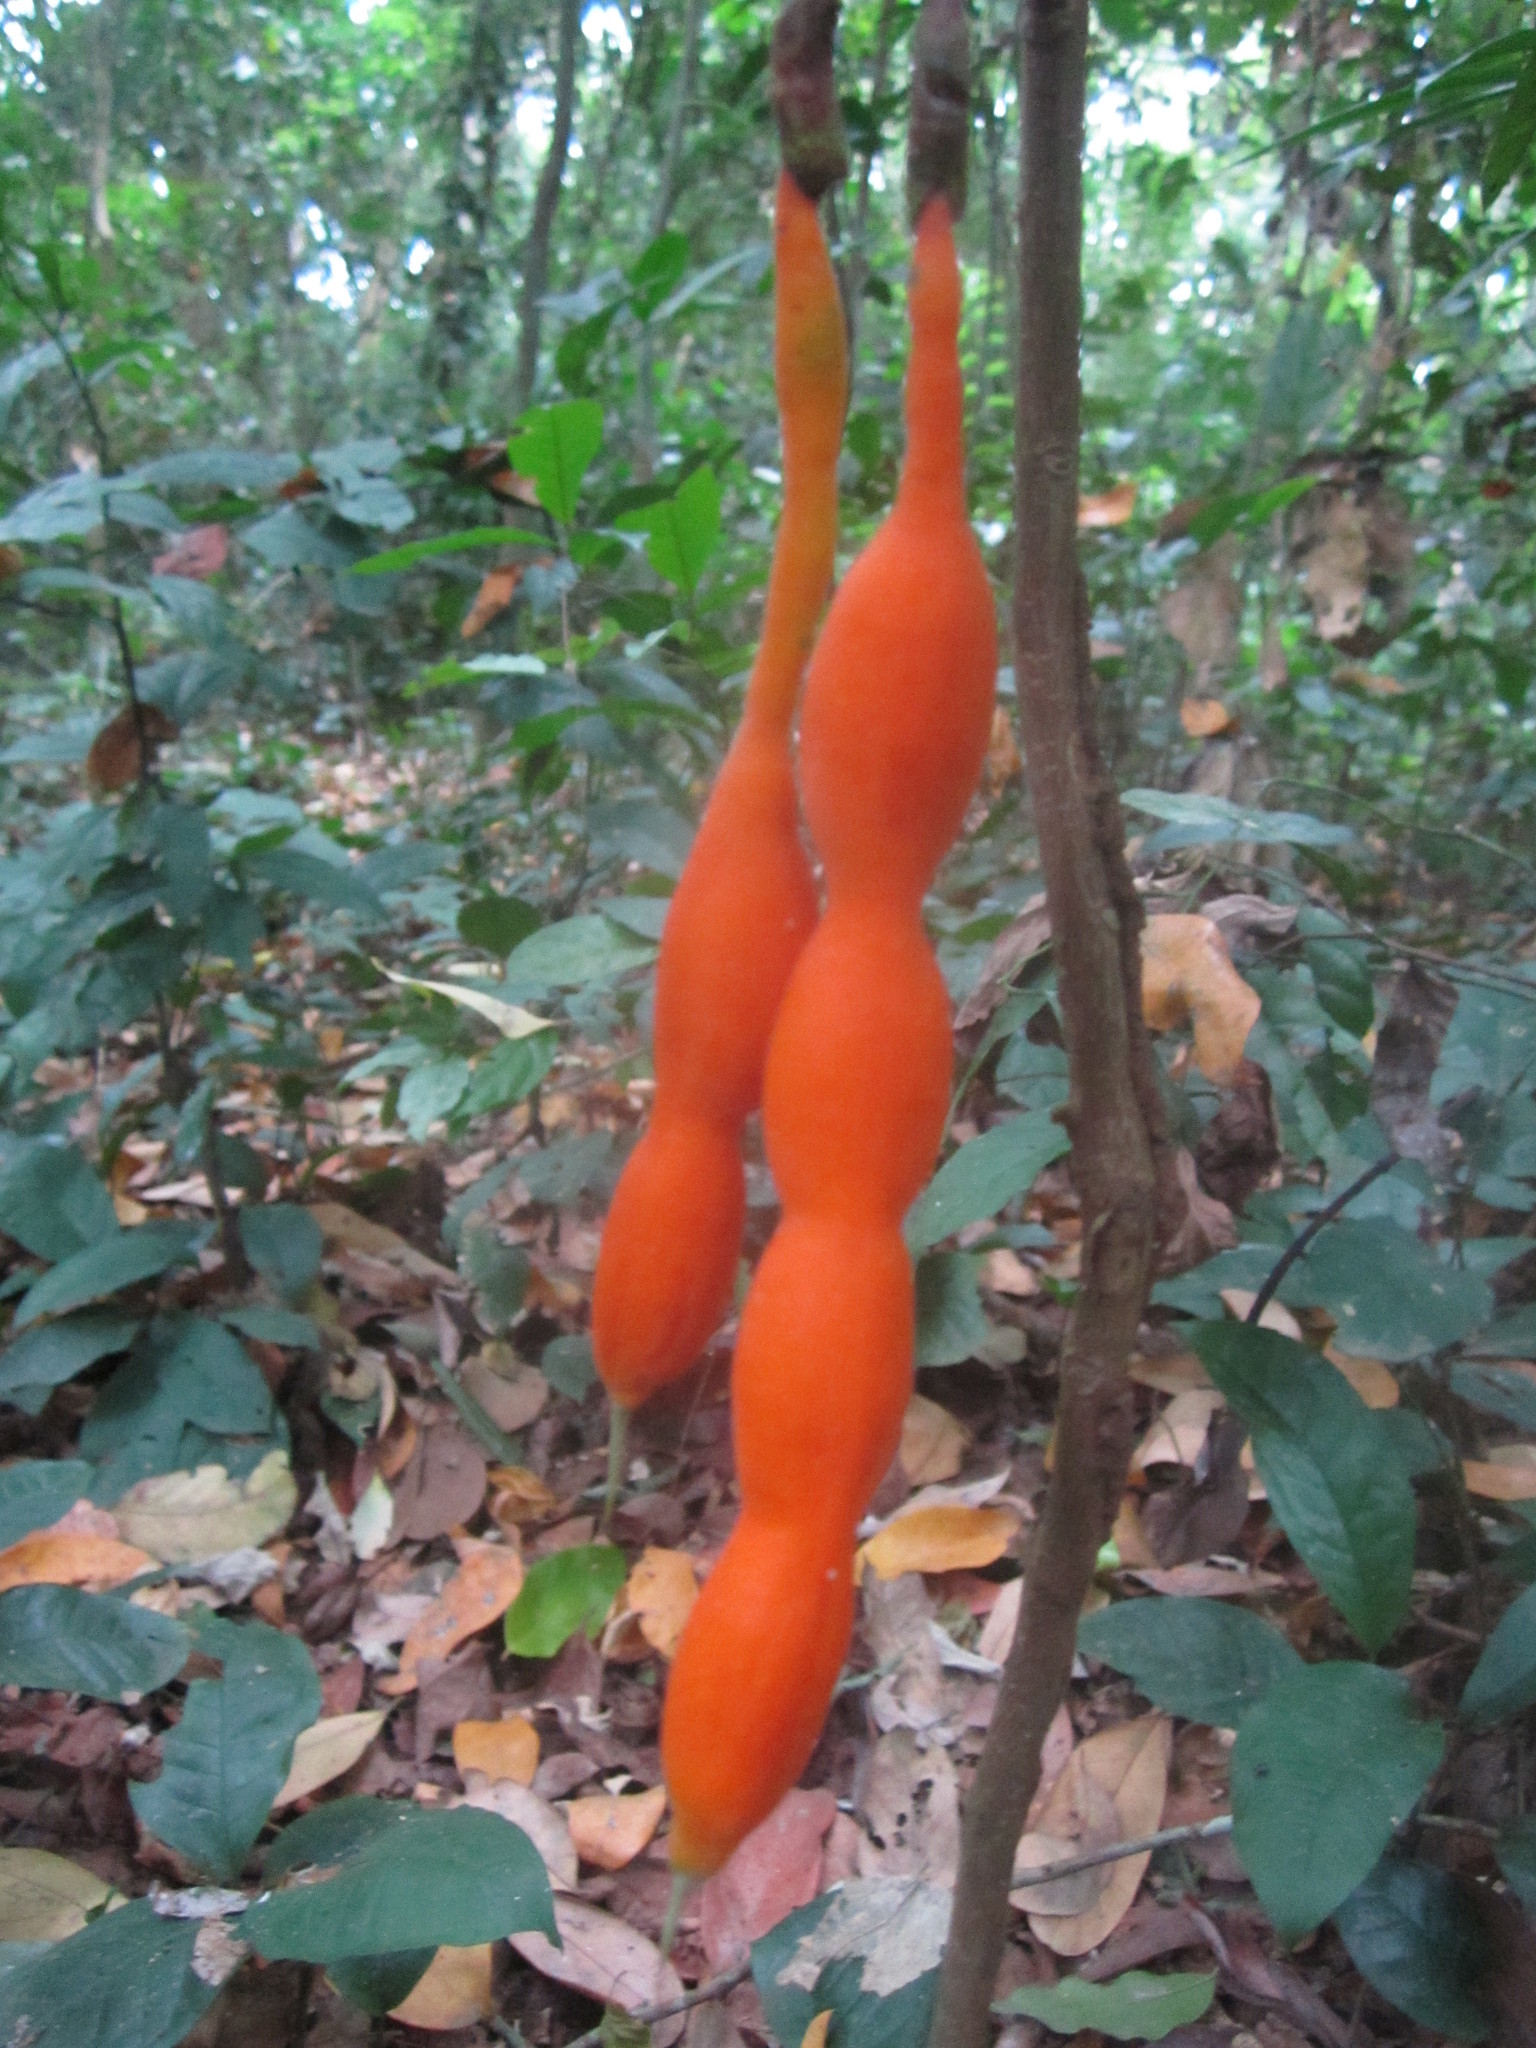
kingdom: Plantae
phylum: Tracheophyta
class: Magnoliopsida
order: Fabales
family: Fabaceae
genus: Angylocalyx
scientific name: Angylocalyx oligophyllus
